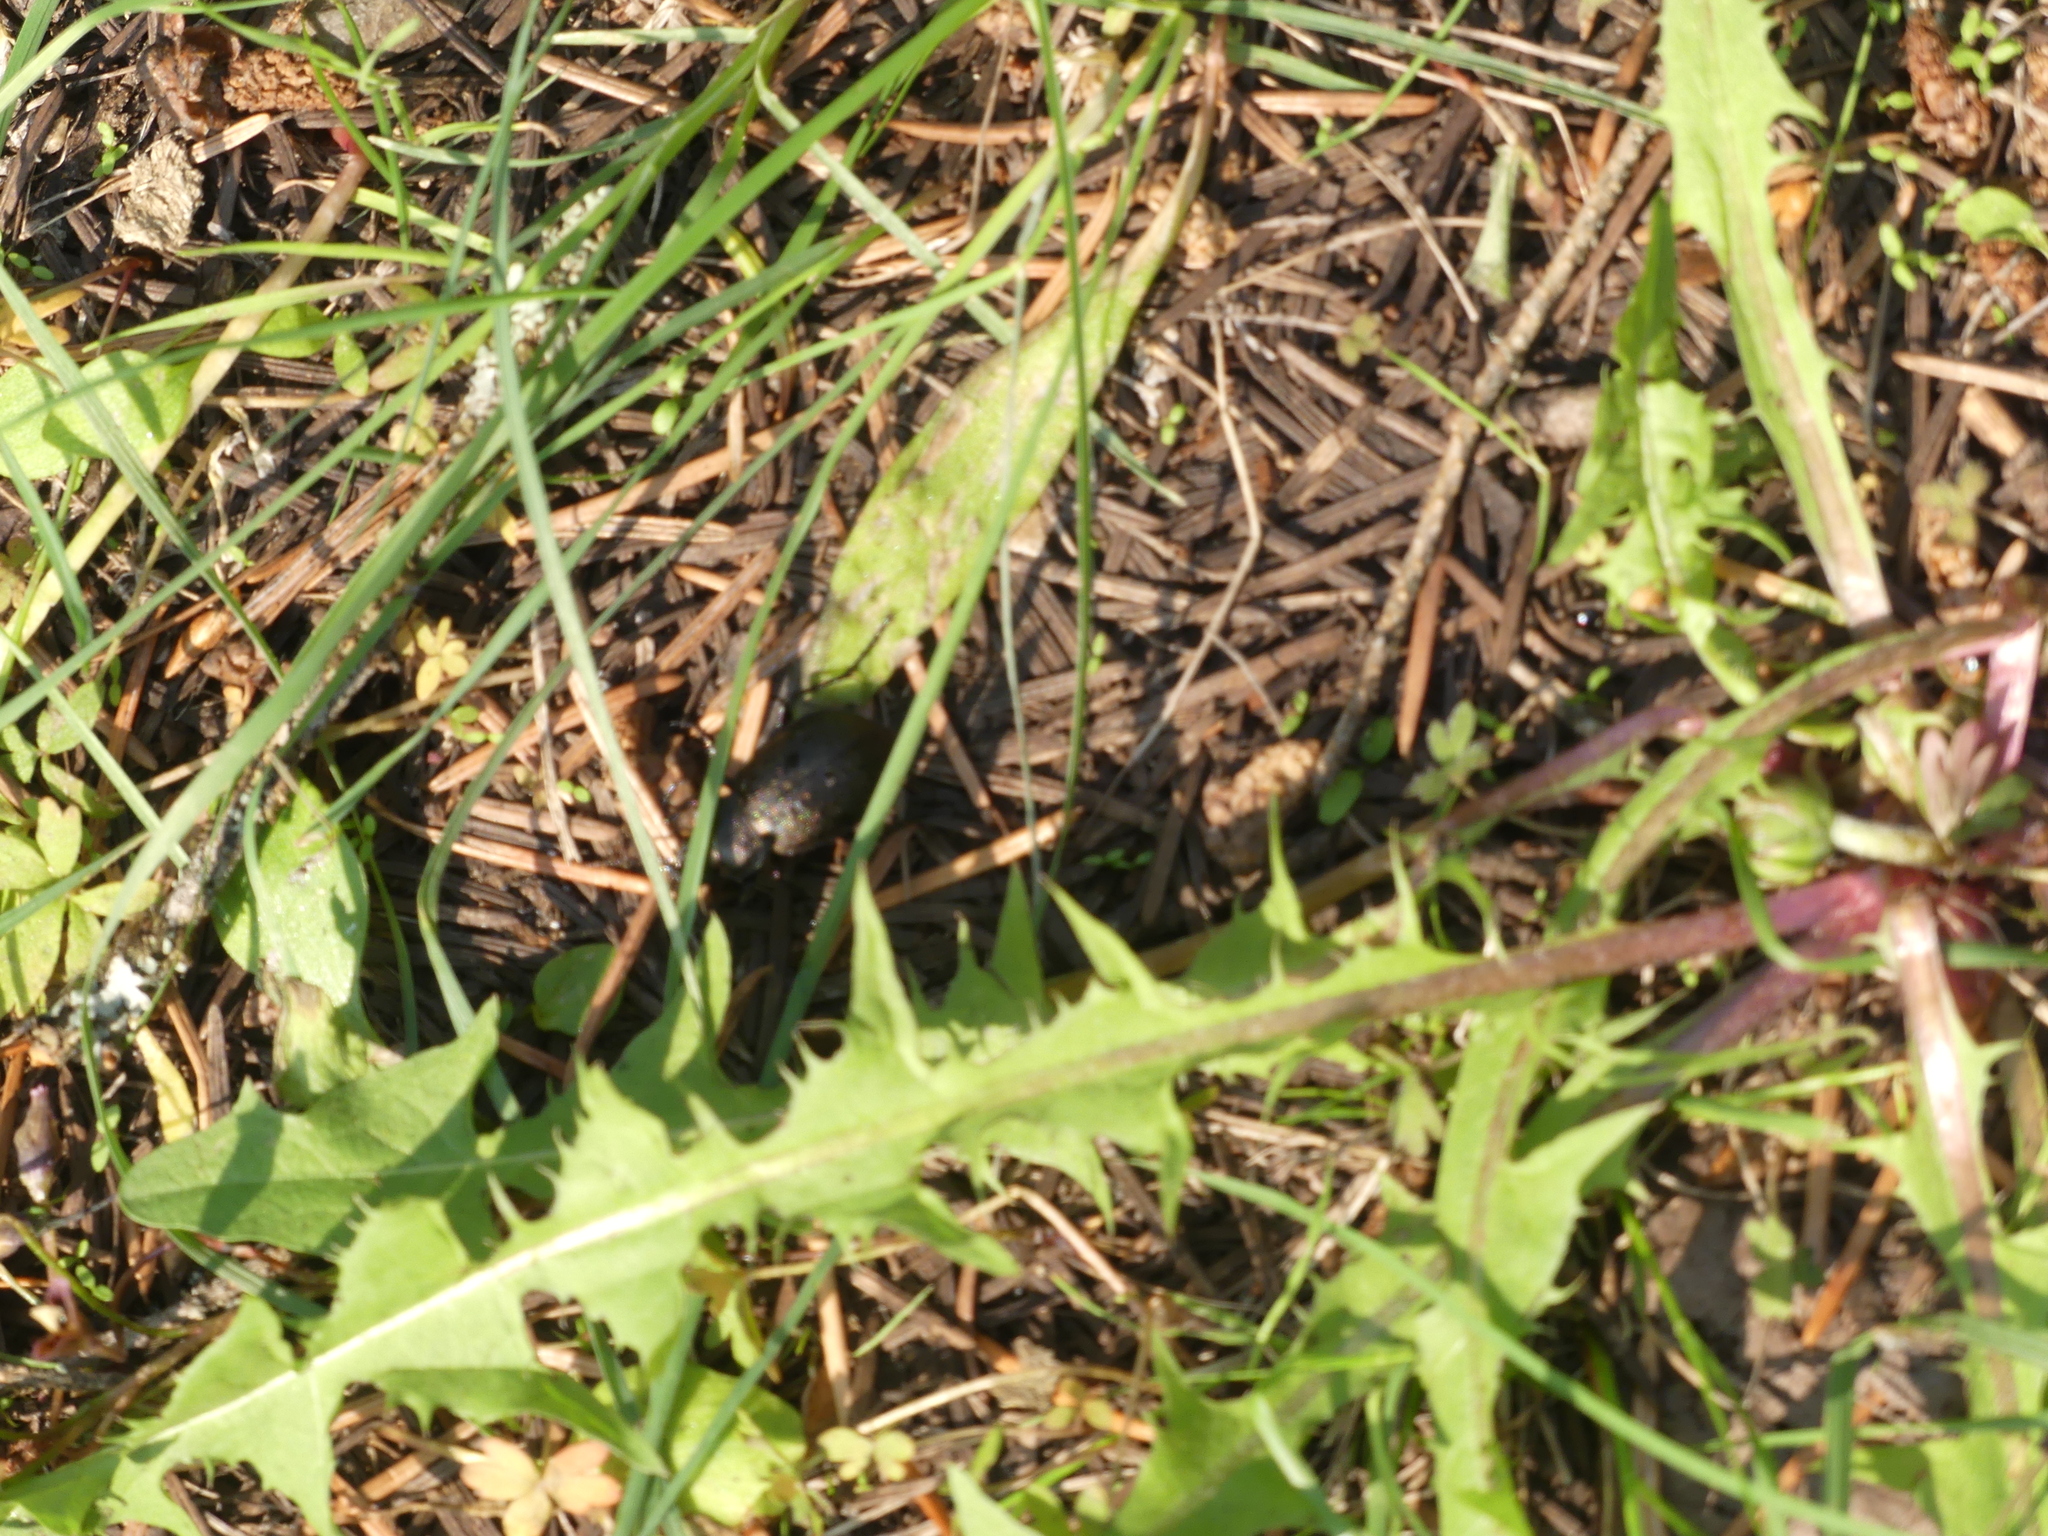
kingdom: Animalia
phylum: Arthropoda
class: Insecta
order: Coleoptera
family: Carabidae
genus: Carabus
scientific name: Carabus
